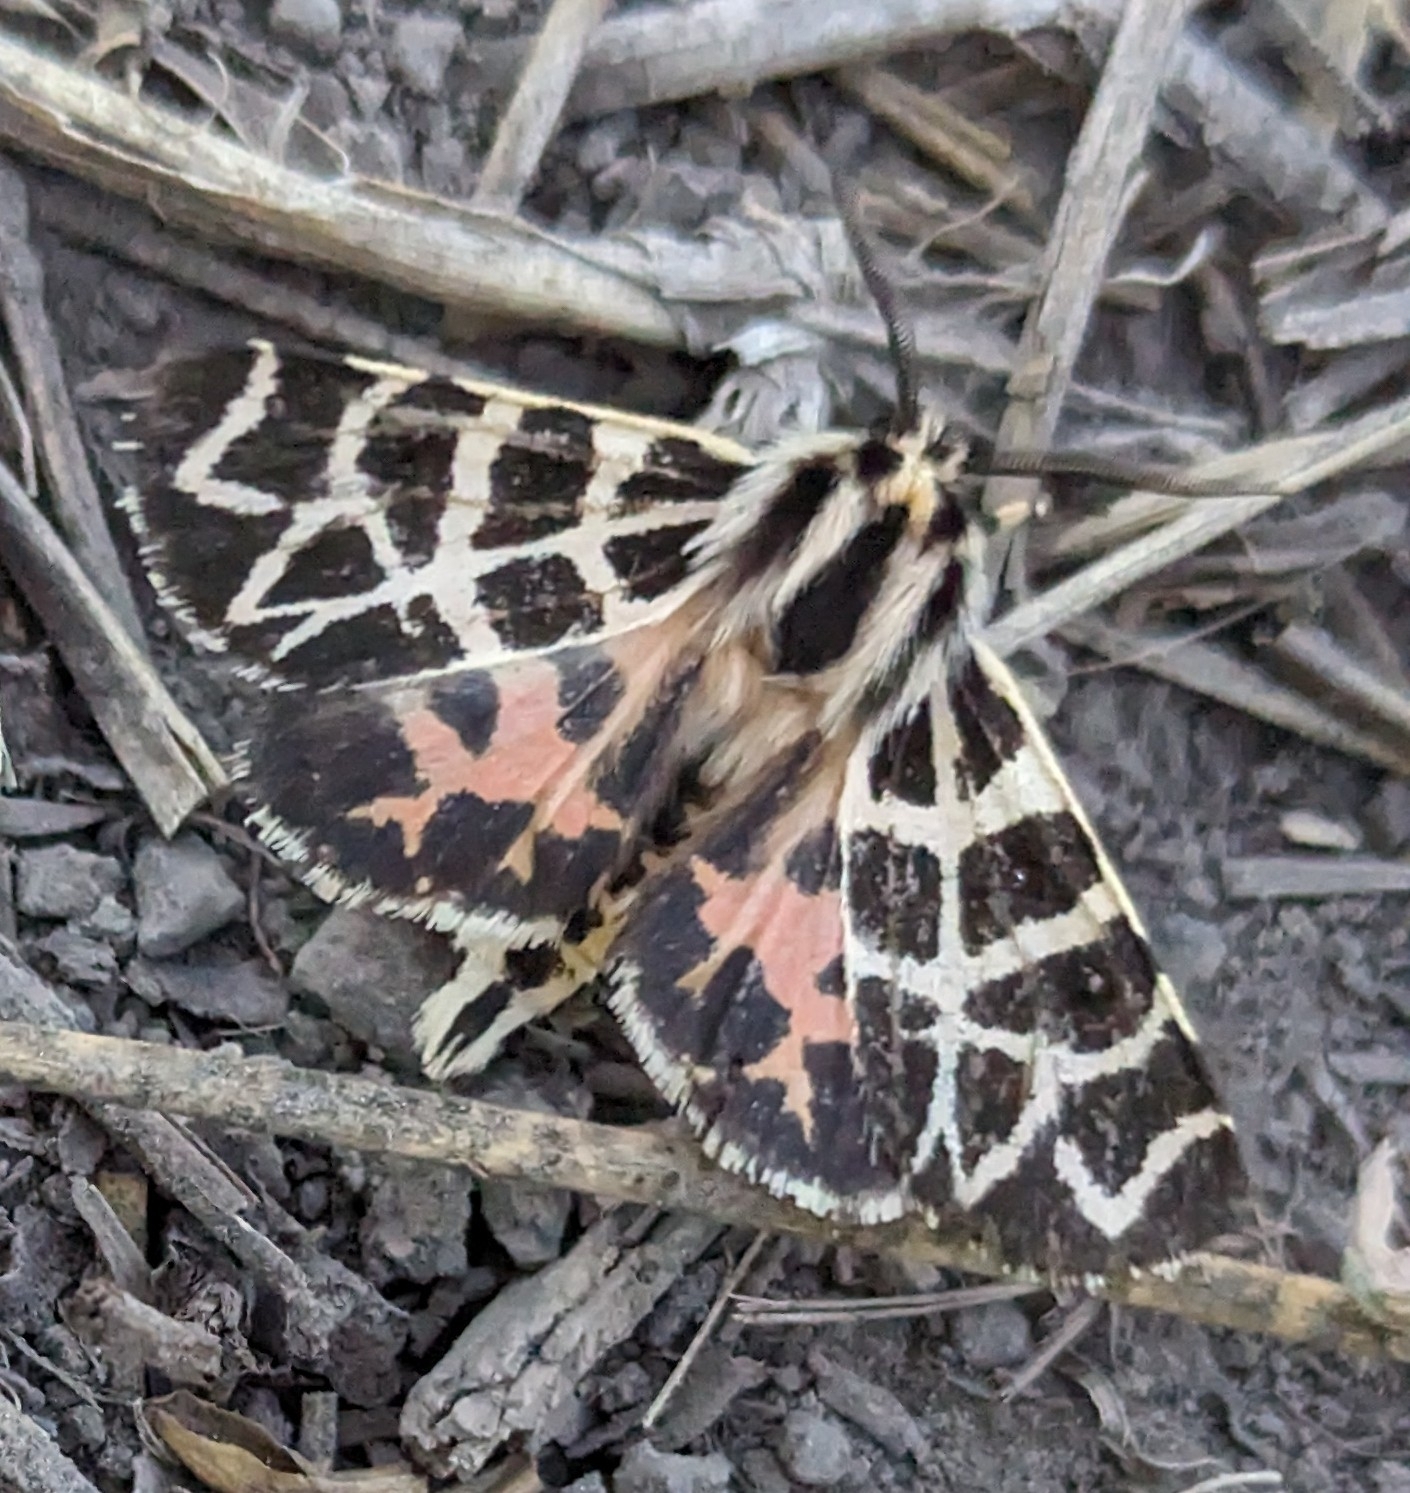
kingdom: Animalia
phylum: Arthropoda
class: Insecta
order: Lepidoptera
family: Erebidae
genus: Apantesis
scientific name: Apantesis
